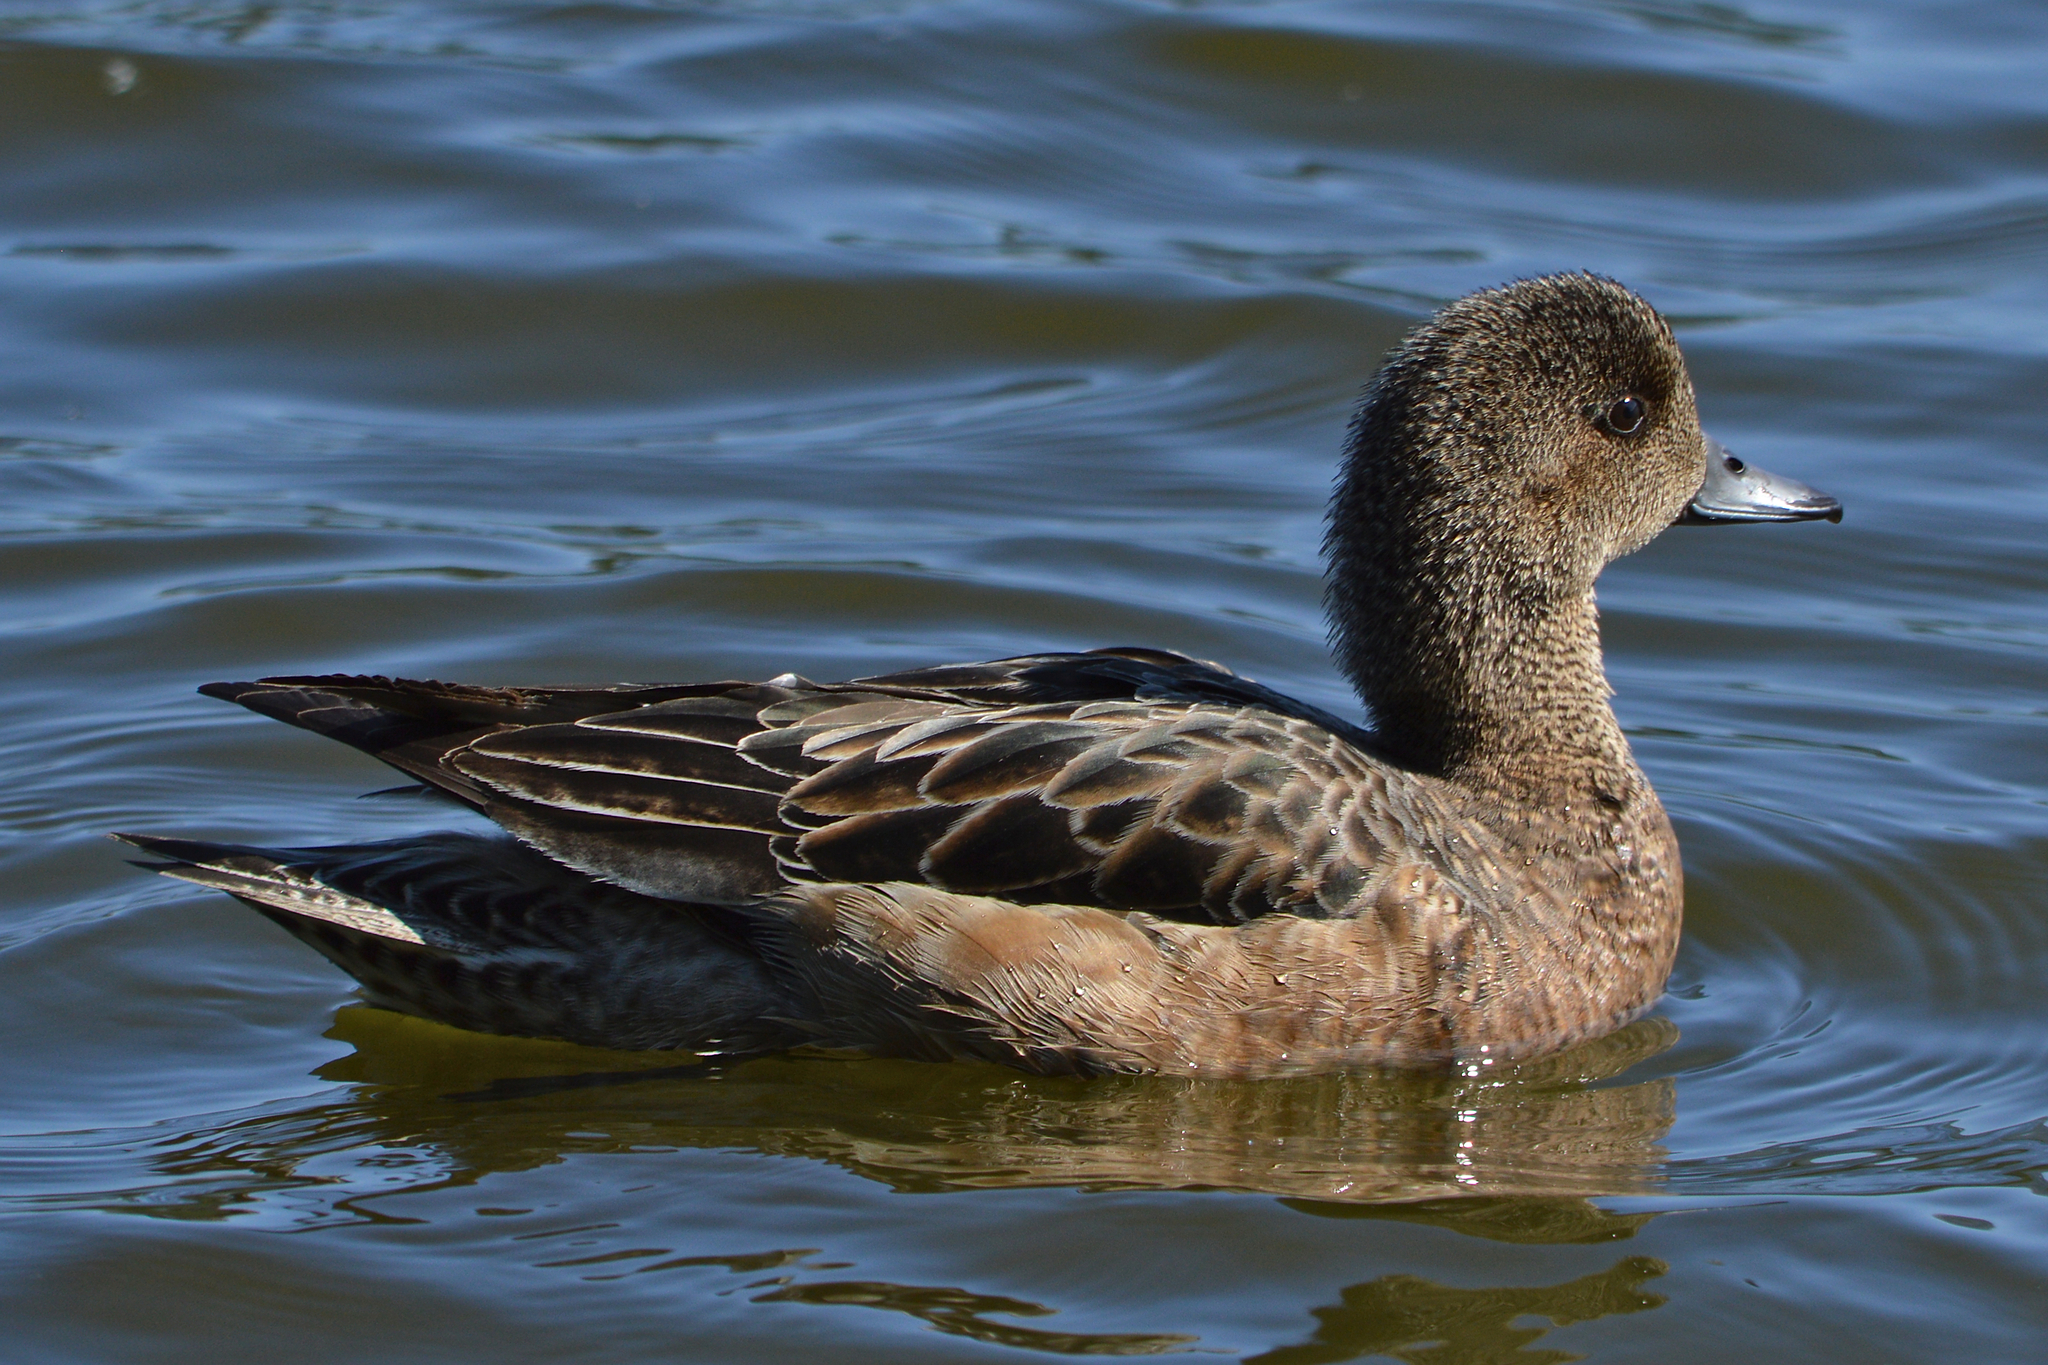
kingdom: Animalia
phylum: Chordata
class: Aves
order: Anseriformes
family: Anatidae
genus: Mareca
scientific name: Mareca penelope
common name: Eurasian wigeon
